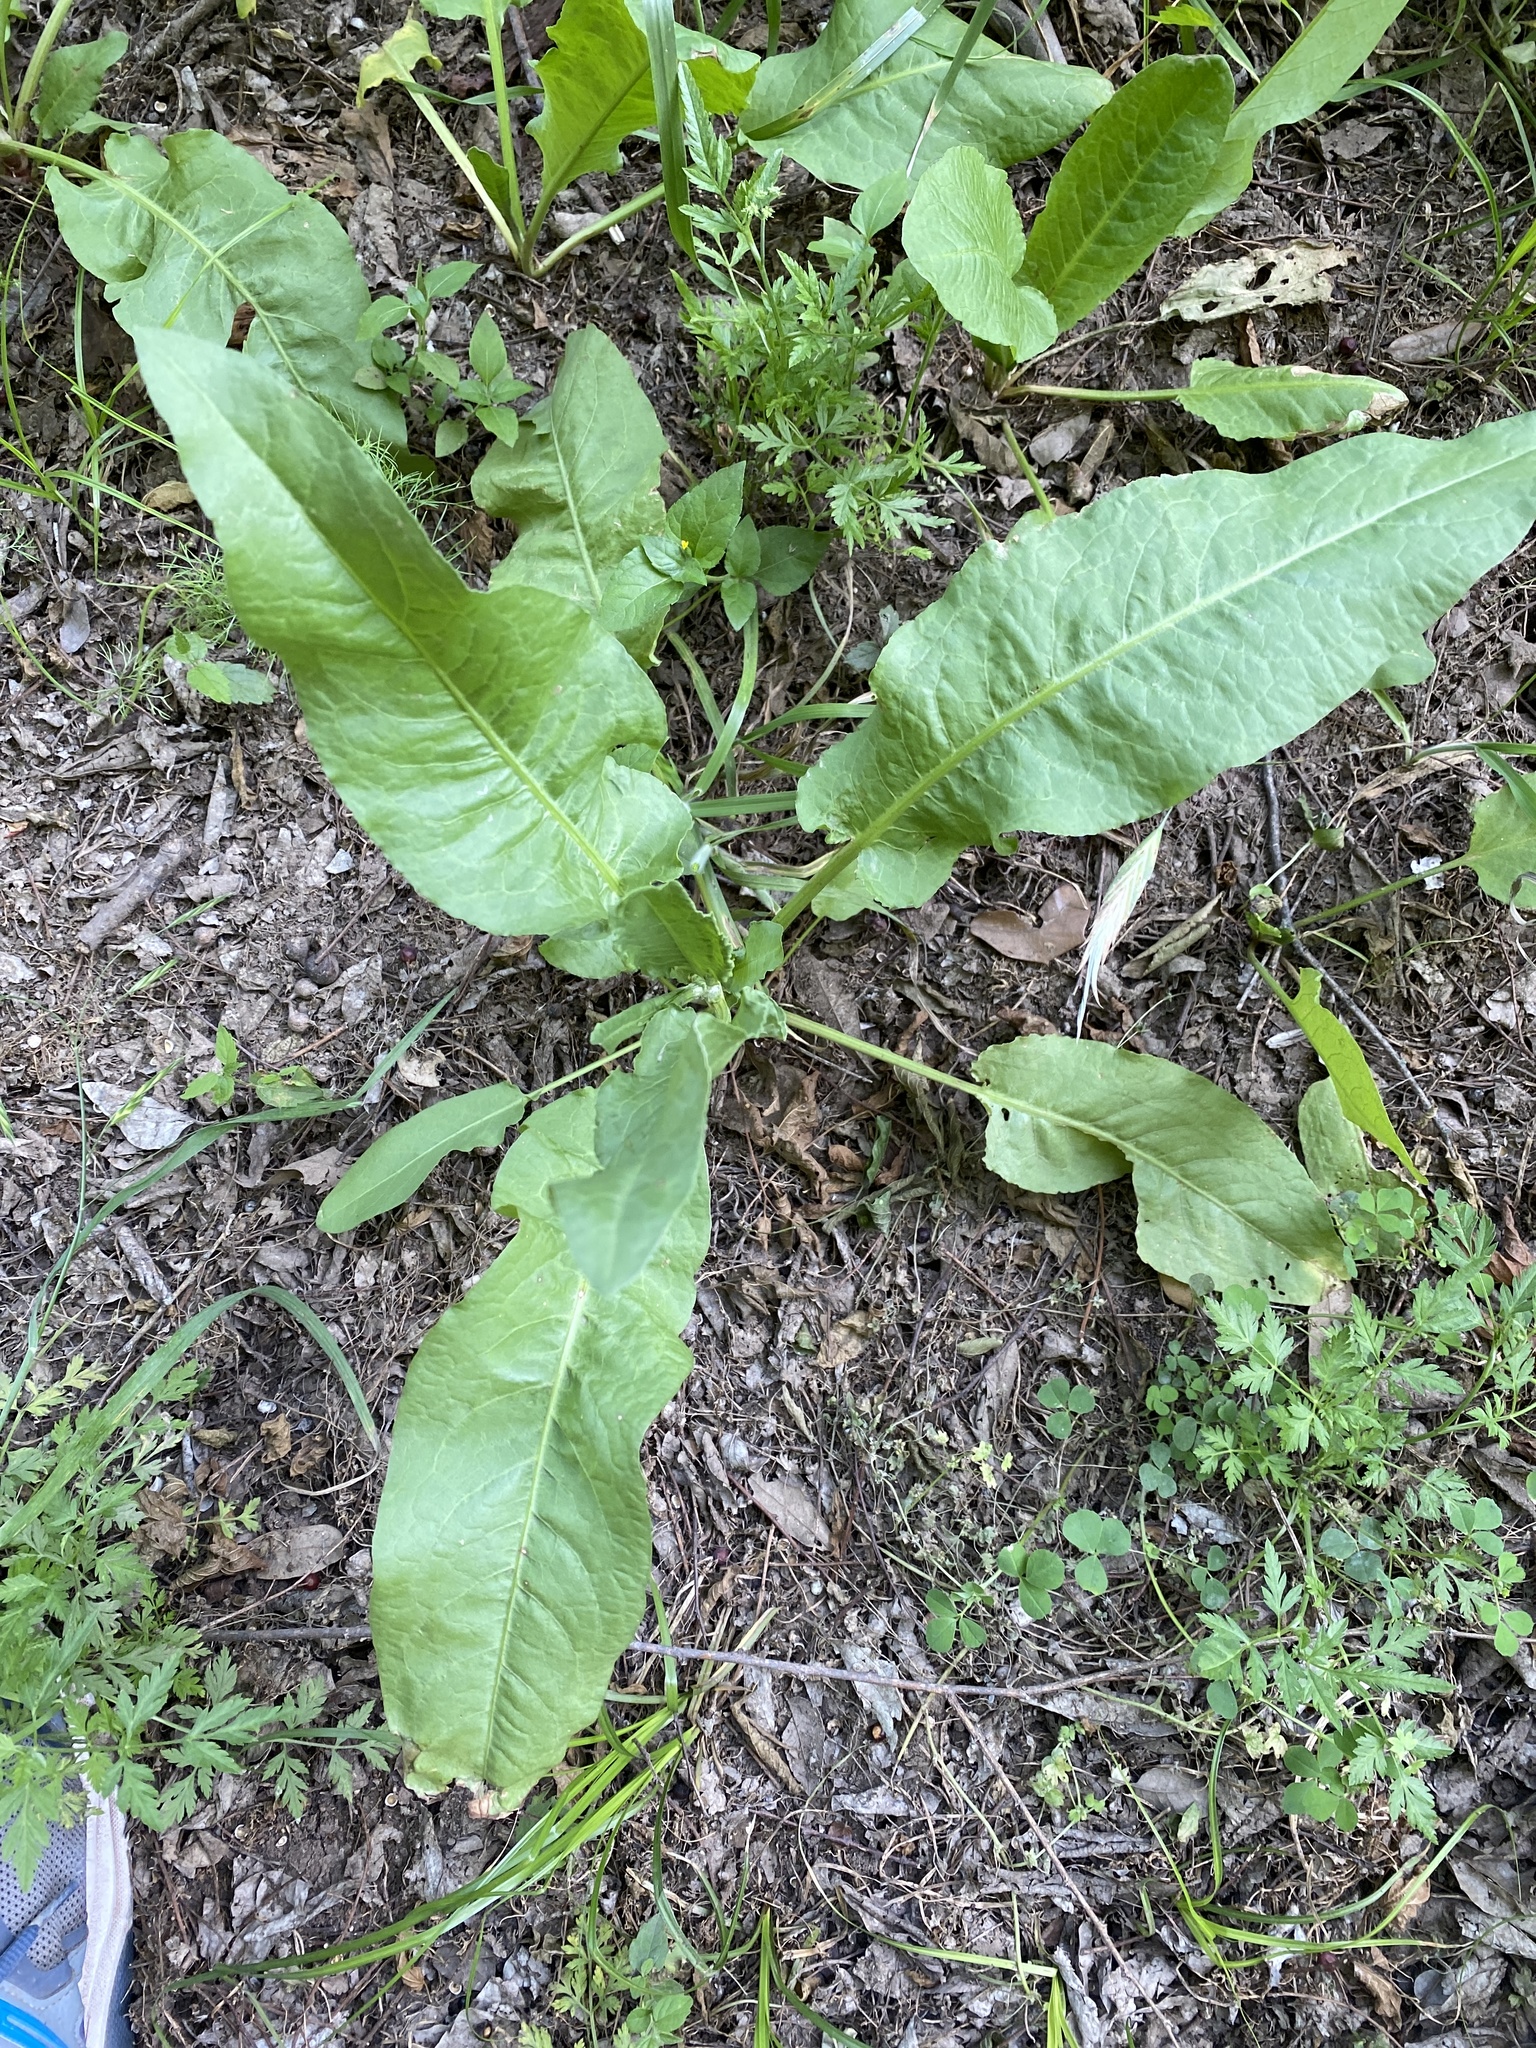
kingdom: Plantae
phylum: Tracheophyta
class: Magnoliopsida
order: Caryophyllales
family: Polygonaceae
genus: Rumex
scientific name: Rumex crispus
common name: Curled dock
